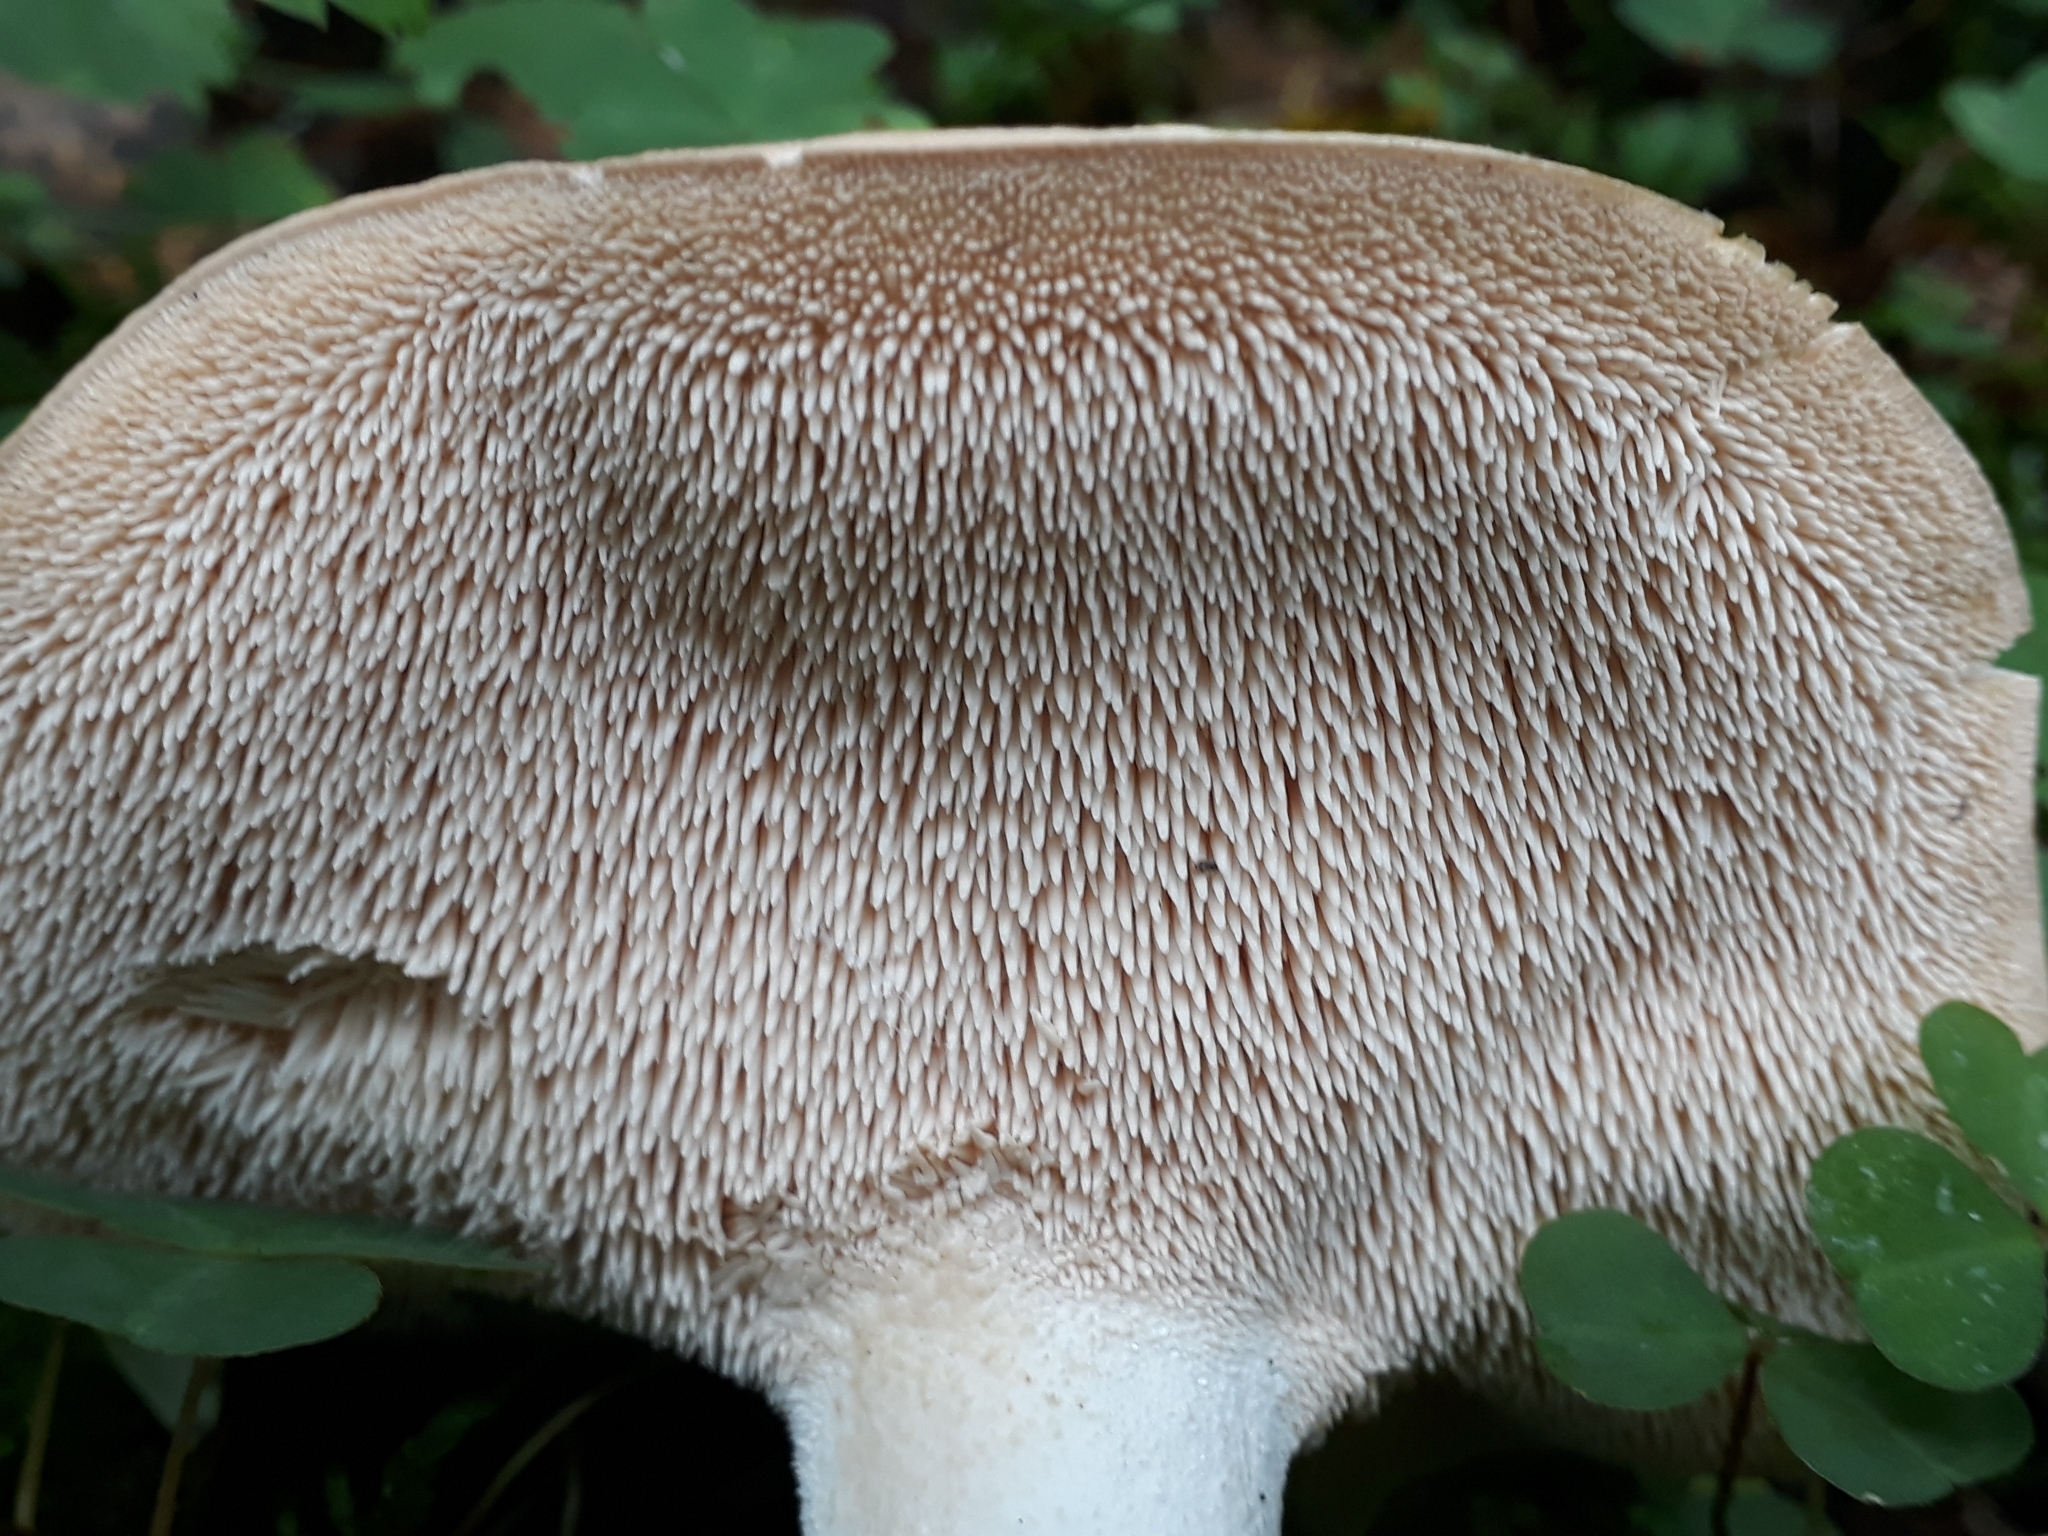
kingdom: Fungi
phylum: Basidiomycota
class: Agaricomycetes
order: Cantharellales
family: Hydnaceae
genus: Hydnum
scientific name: Hydnum repandum
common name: Wood hedgehog
